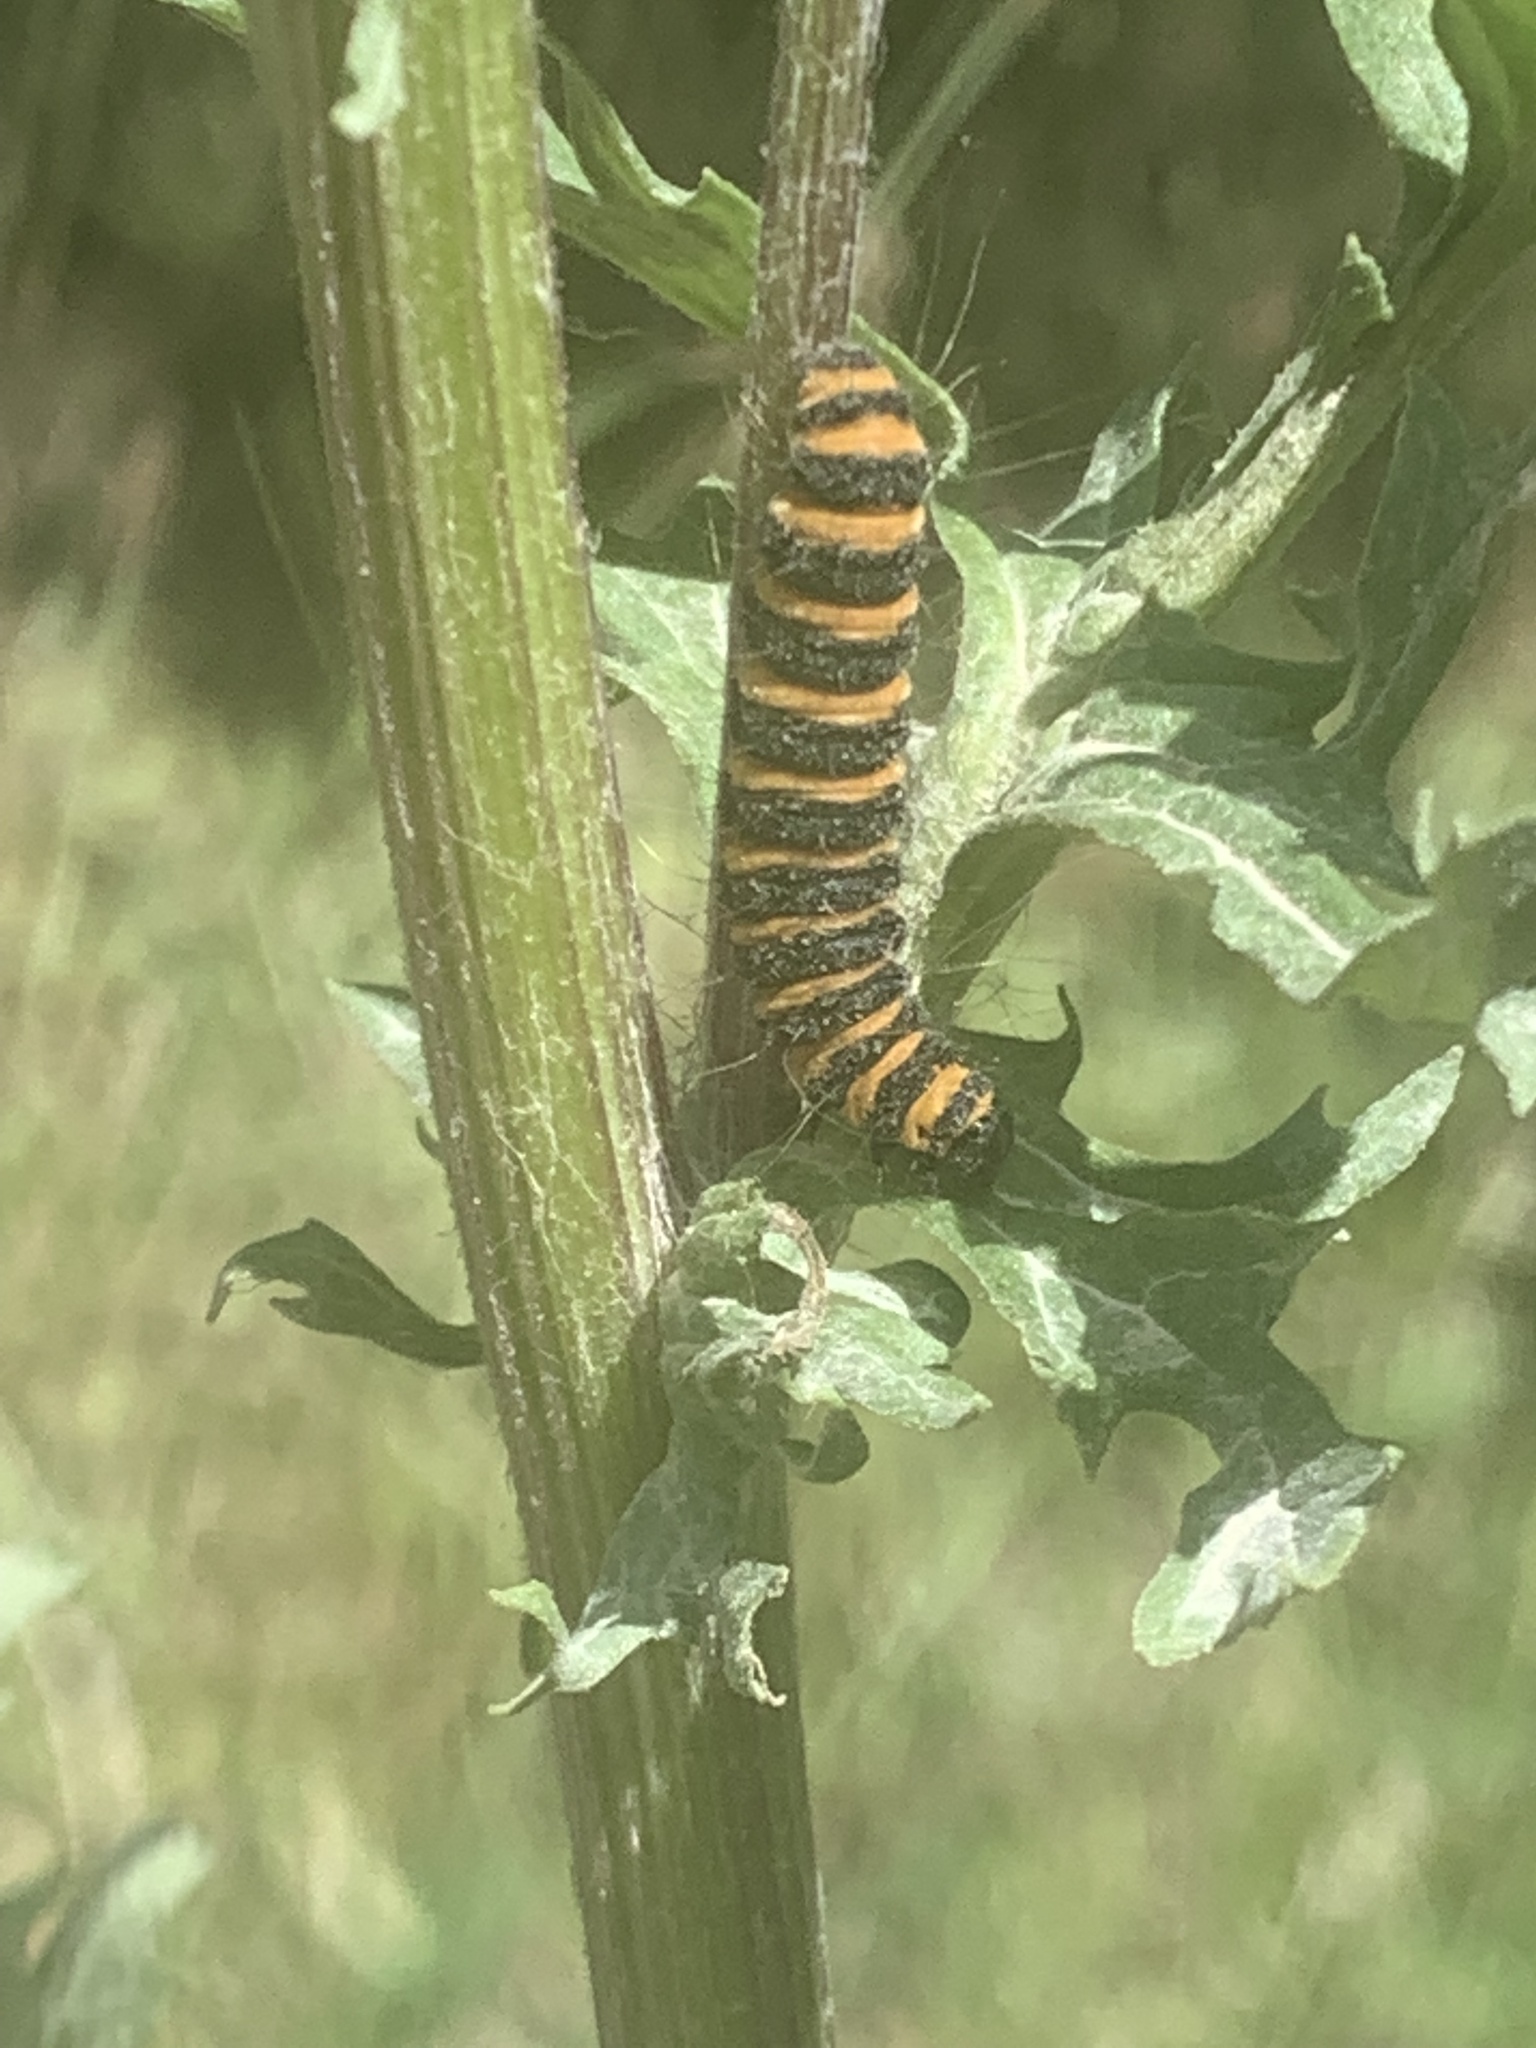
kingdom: Animalia
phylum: Arthropoda
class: Insecta
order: Lepidoptera
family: Erebidae
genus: Tyria
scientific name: Tyria jacobaeae
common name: Cinnabar
